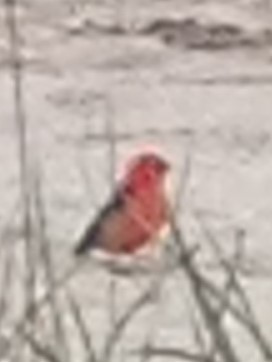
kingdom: Animalia
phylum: Chordata
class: Aves
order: Passeriformes
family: Cardinalidae
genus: Piranga
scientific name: Piranga olivacea
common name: Scarlet tanager
